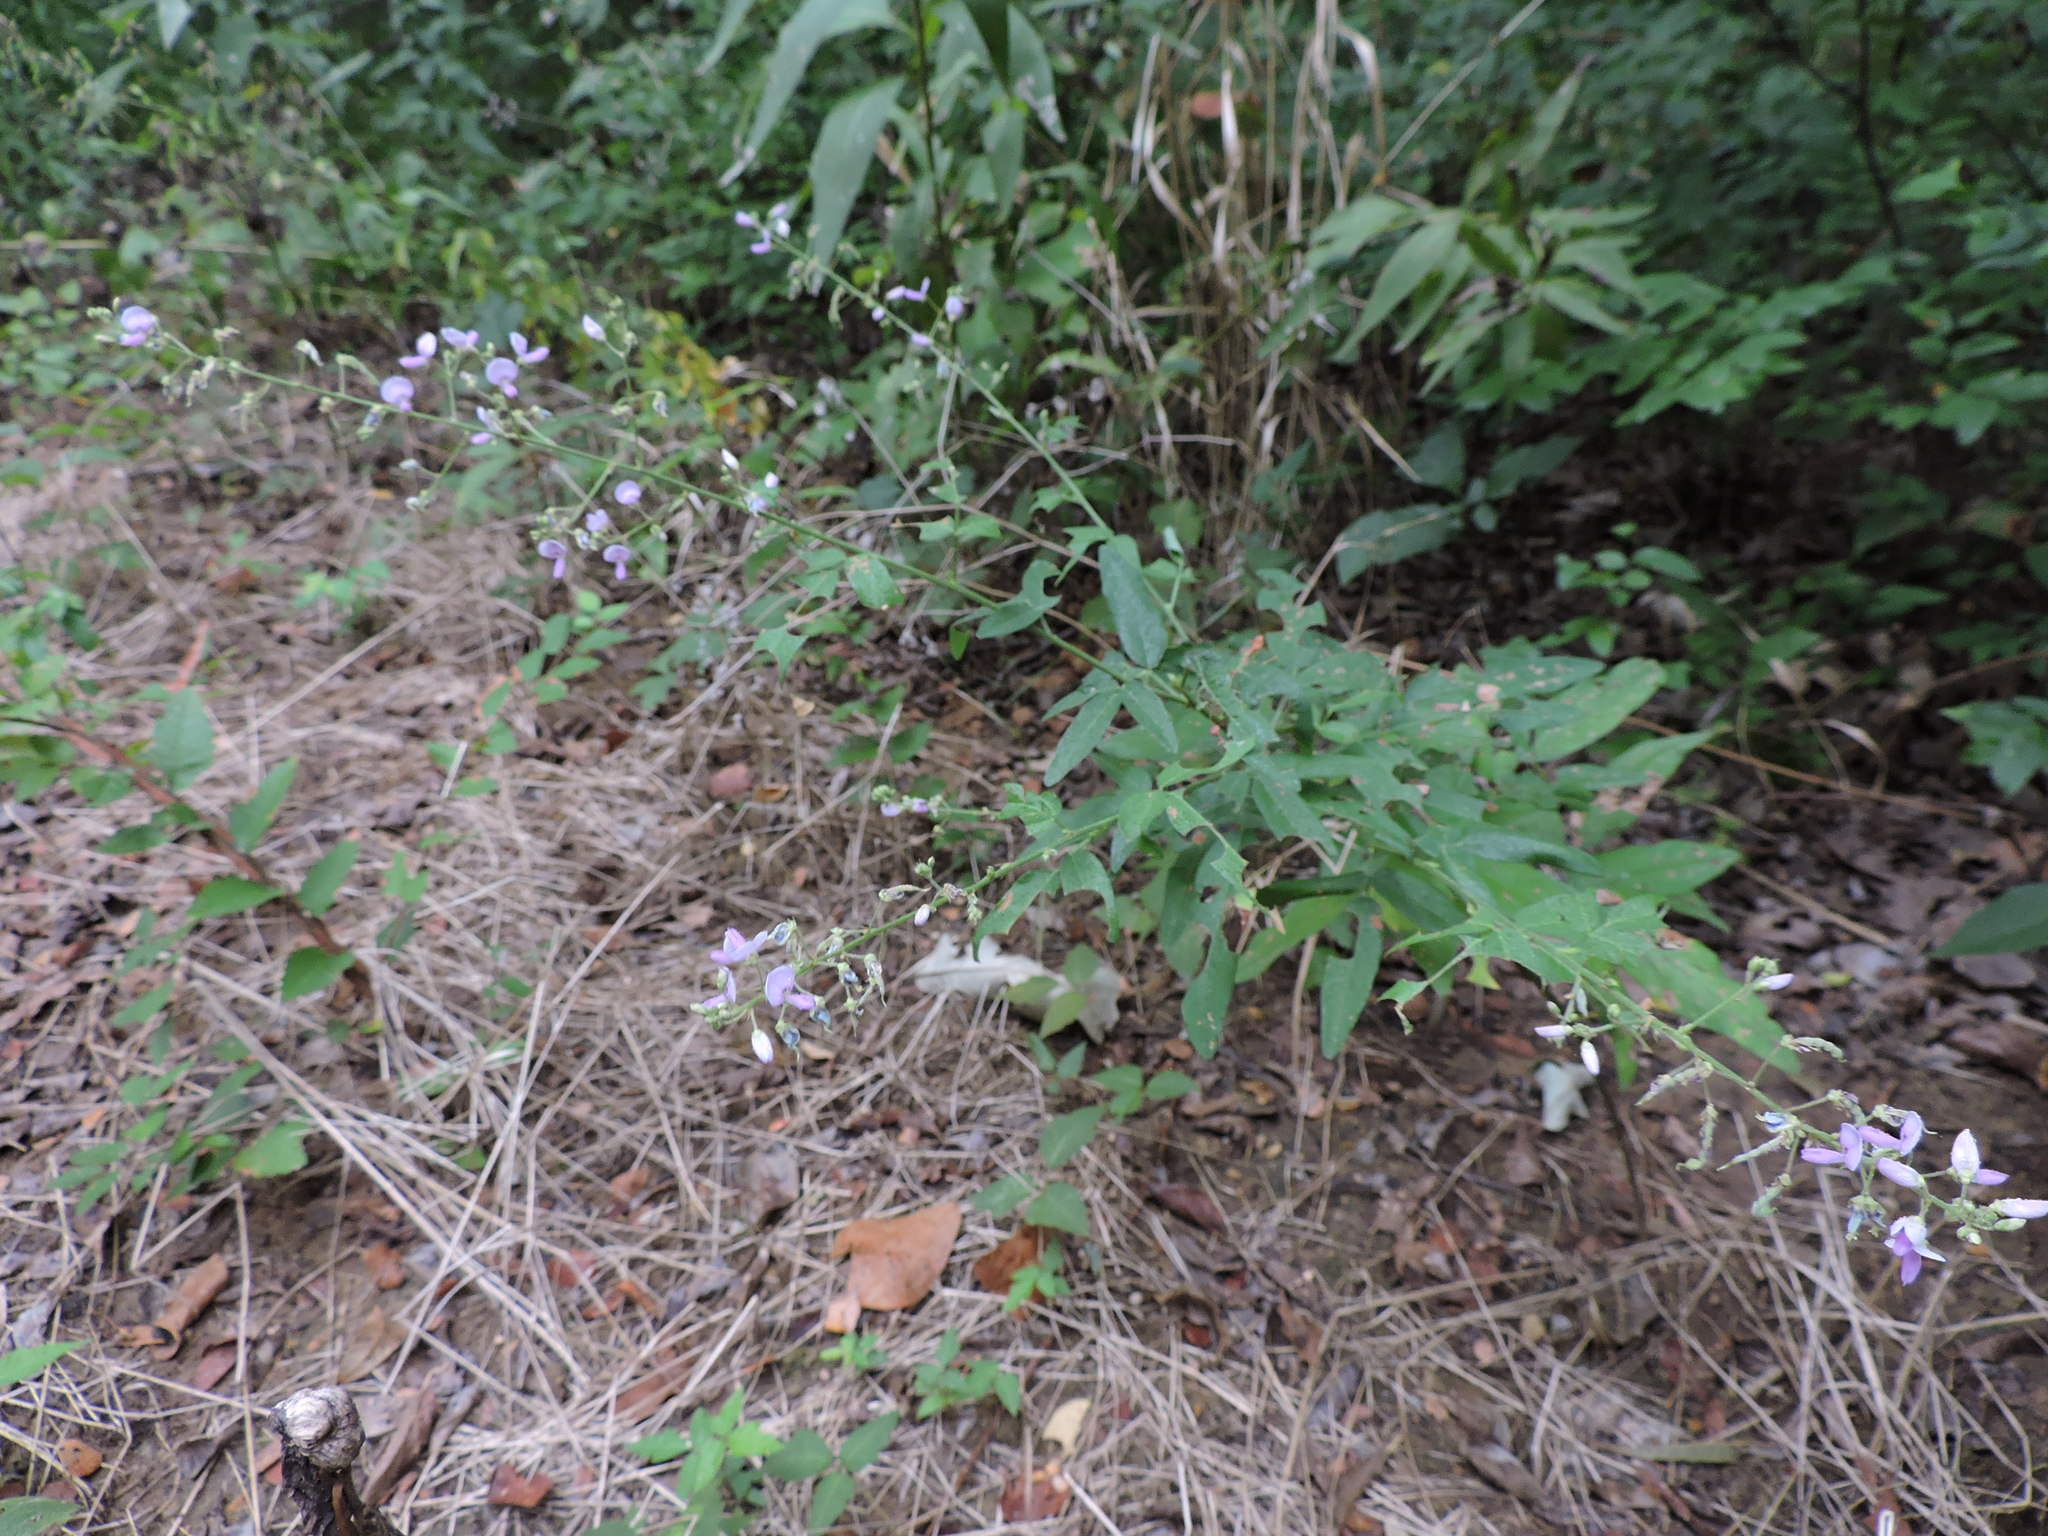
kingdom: Plantae
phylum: Tracheophyta
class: Magnoliopsida
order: Fabales
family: Fabaceae
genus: Desmodium
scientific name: Desmodium paniculatum
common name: Panicled tick-clover
